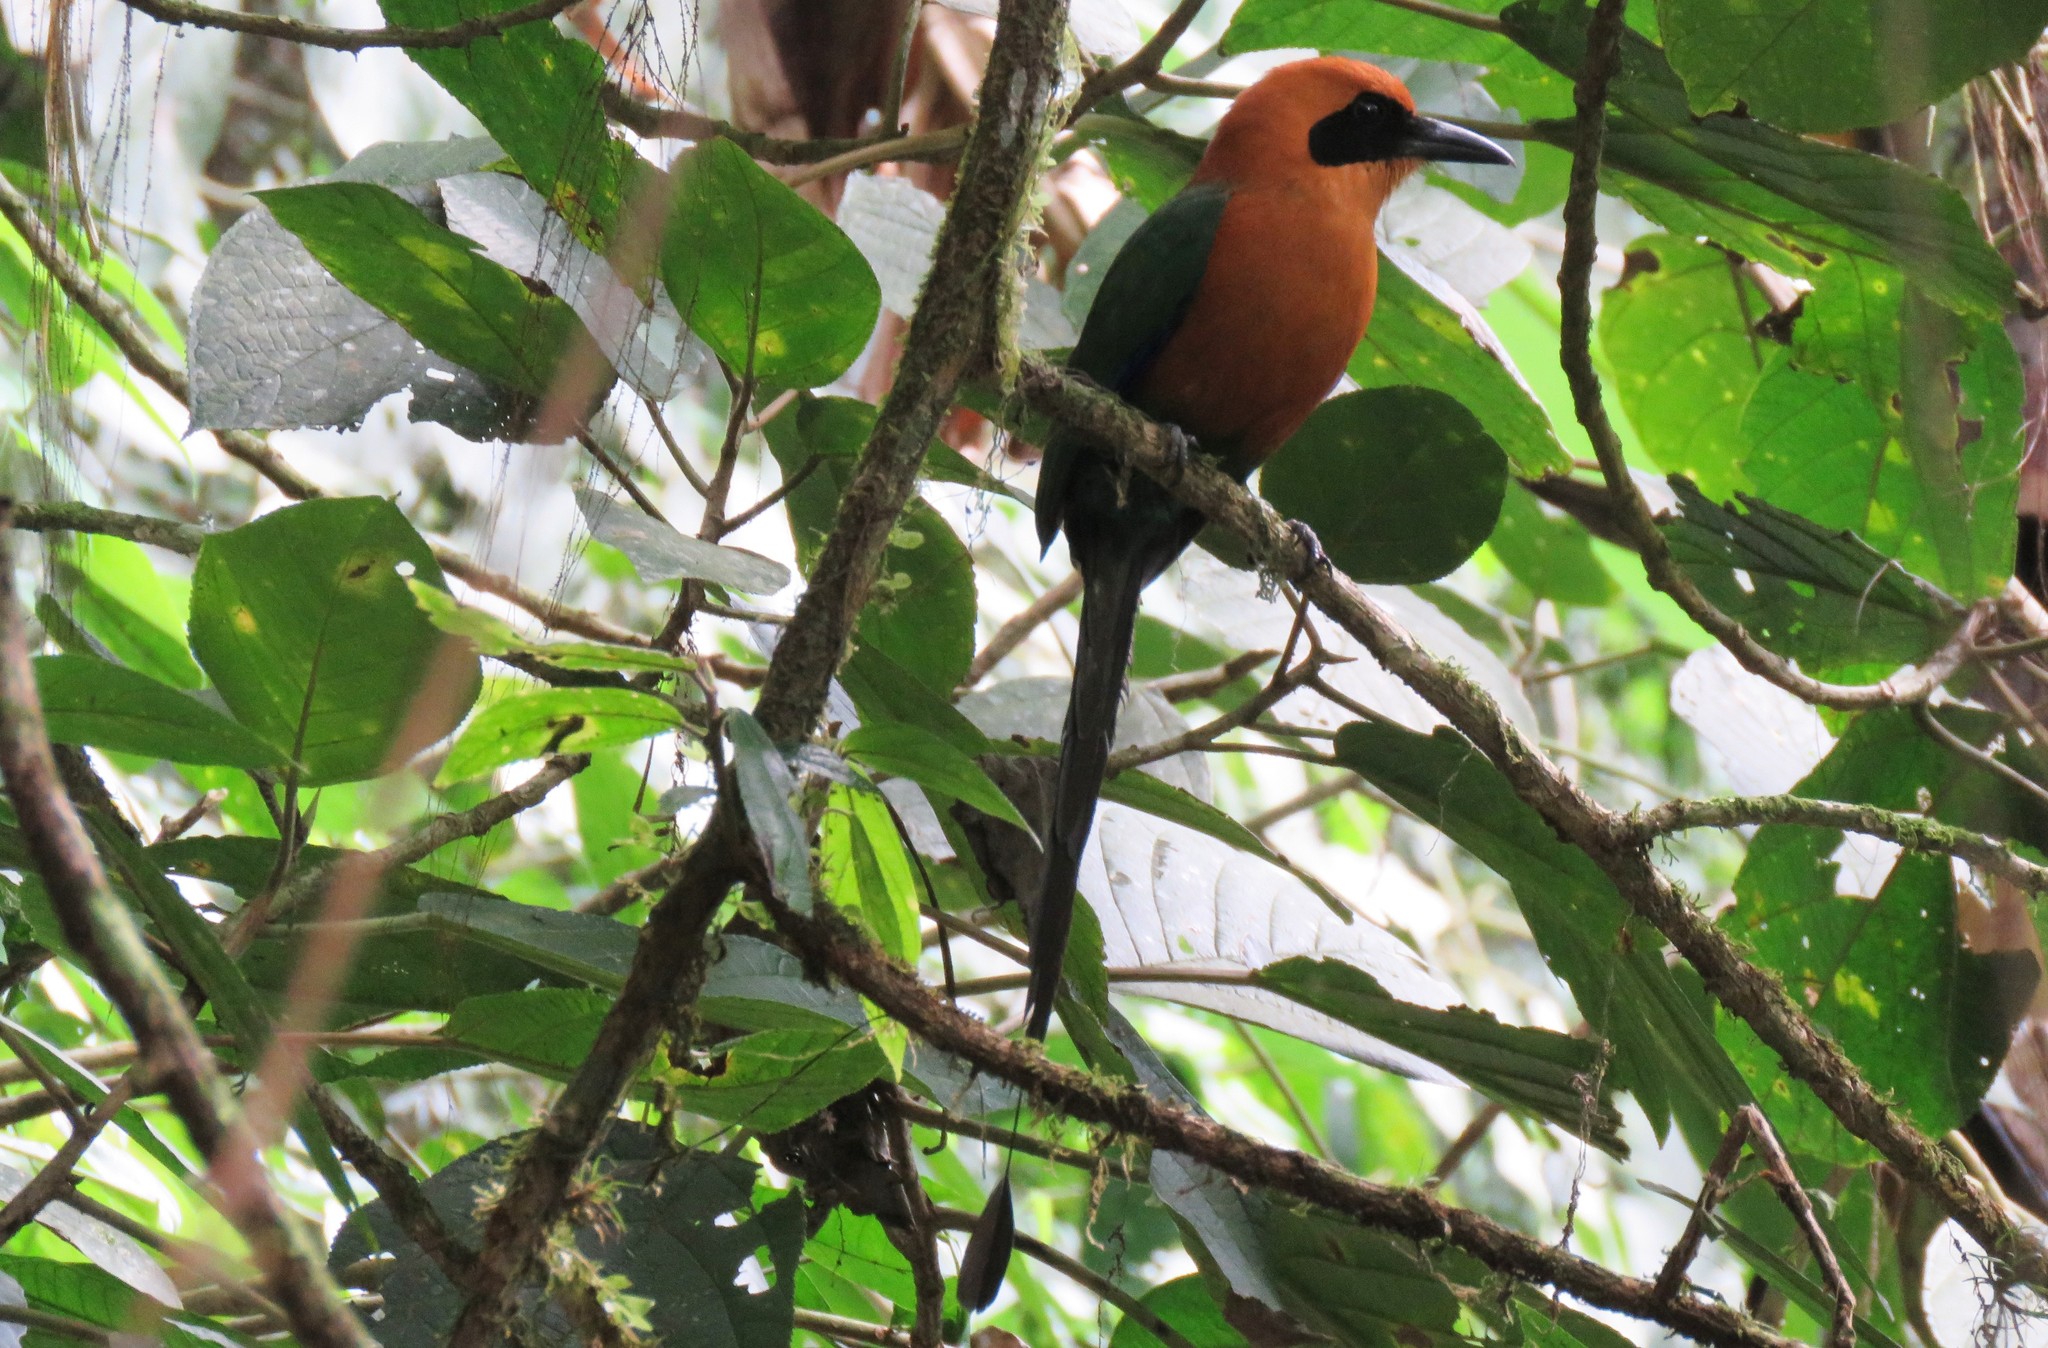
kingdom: Animalia
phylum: Chordata
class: Aves
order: Coraciiformes
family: Momotidae
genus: Baryphthengus
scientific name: Baryphthengus martii
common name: Rufous motmot
